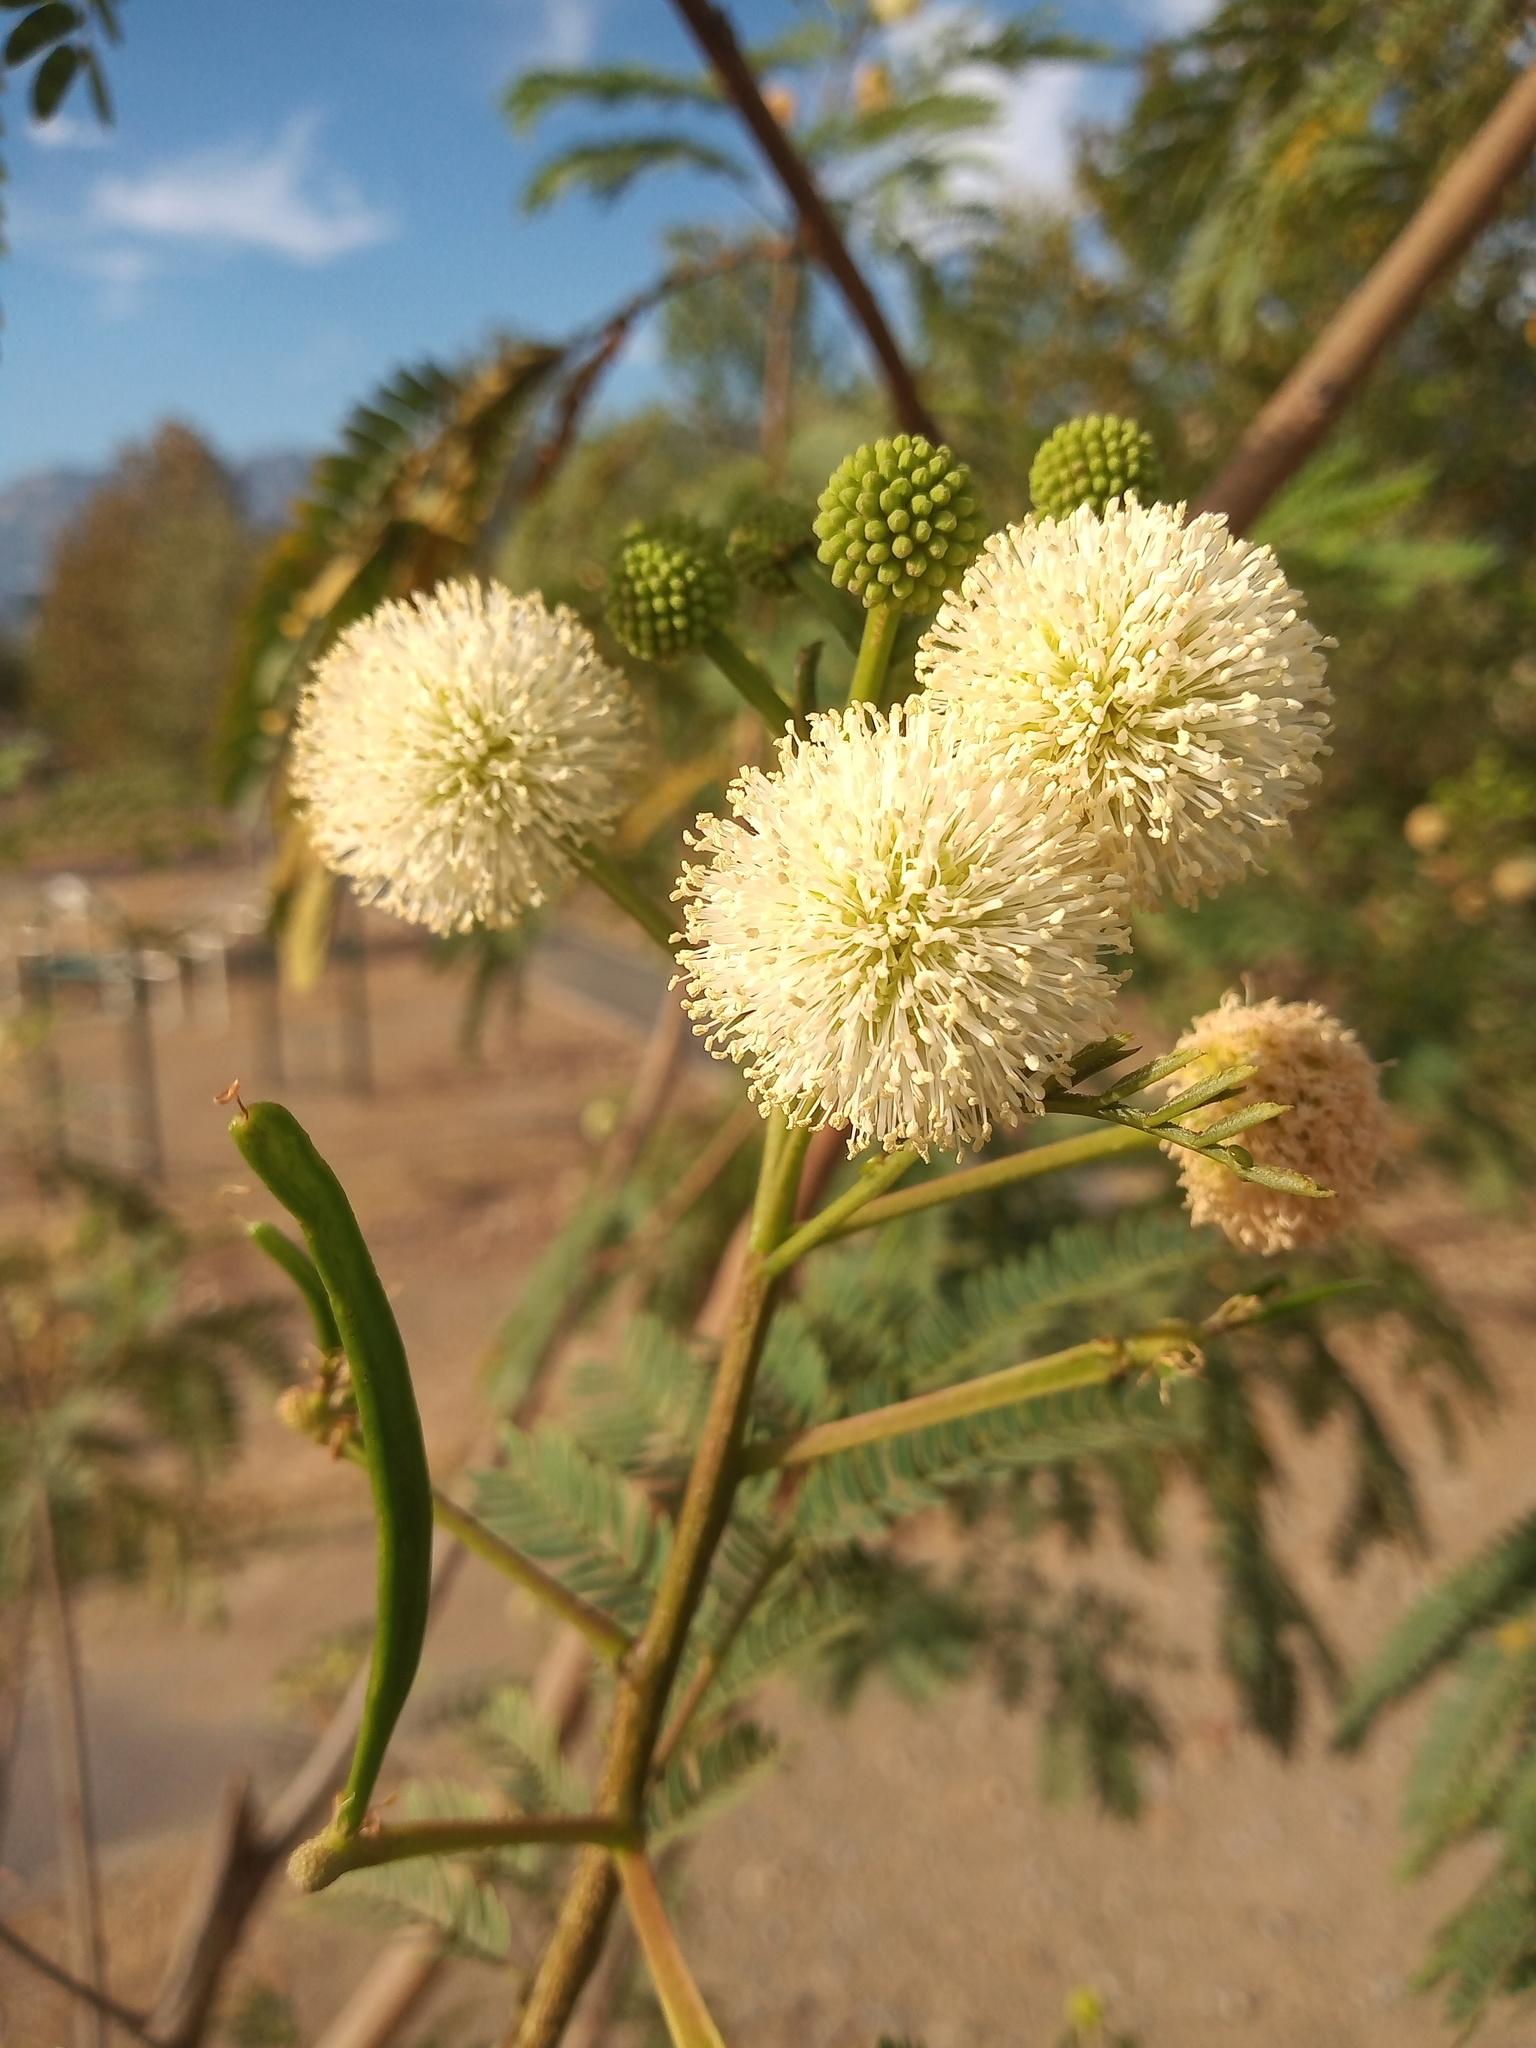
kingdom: Plantae
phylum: Tracheophyta
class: Magnoliopsida
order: Fabales
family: Fabaceae
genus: Leucaena
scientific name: Leucaena leucocephala
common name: White leadtree
